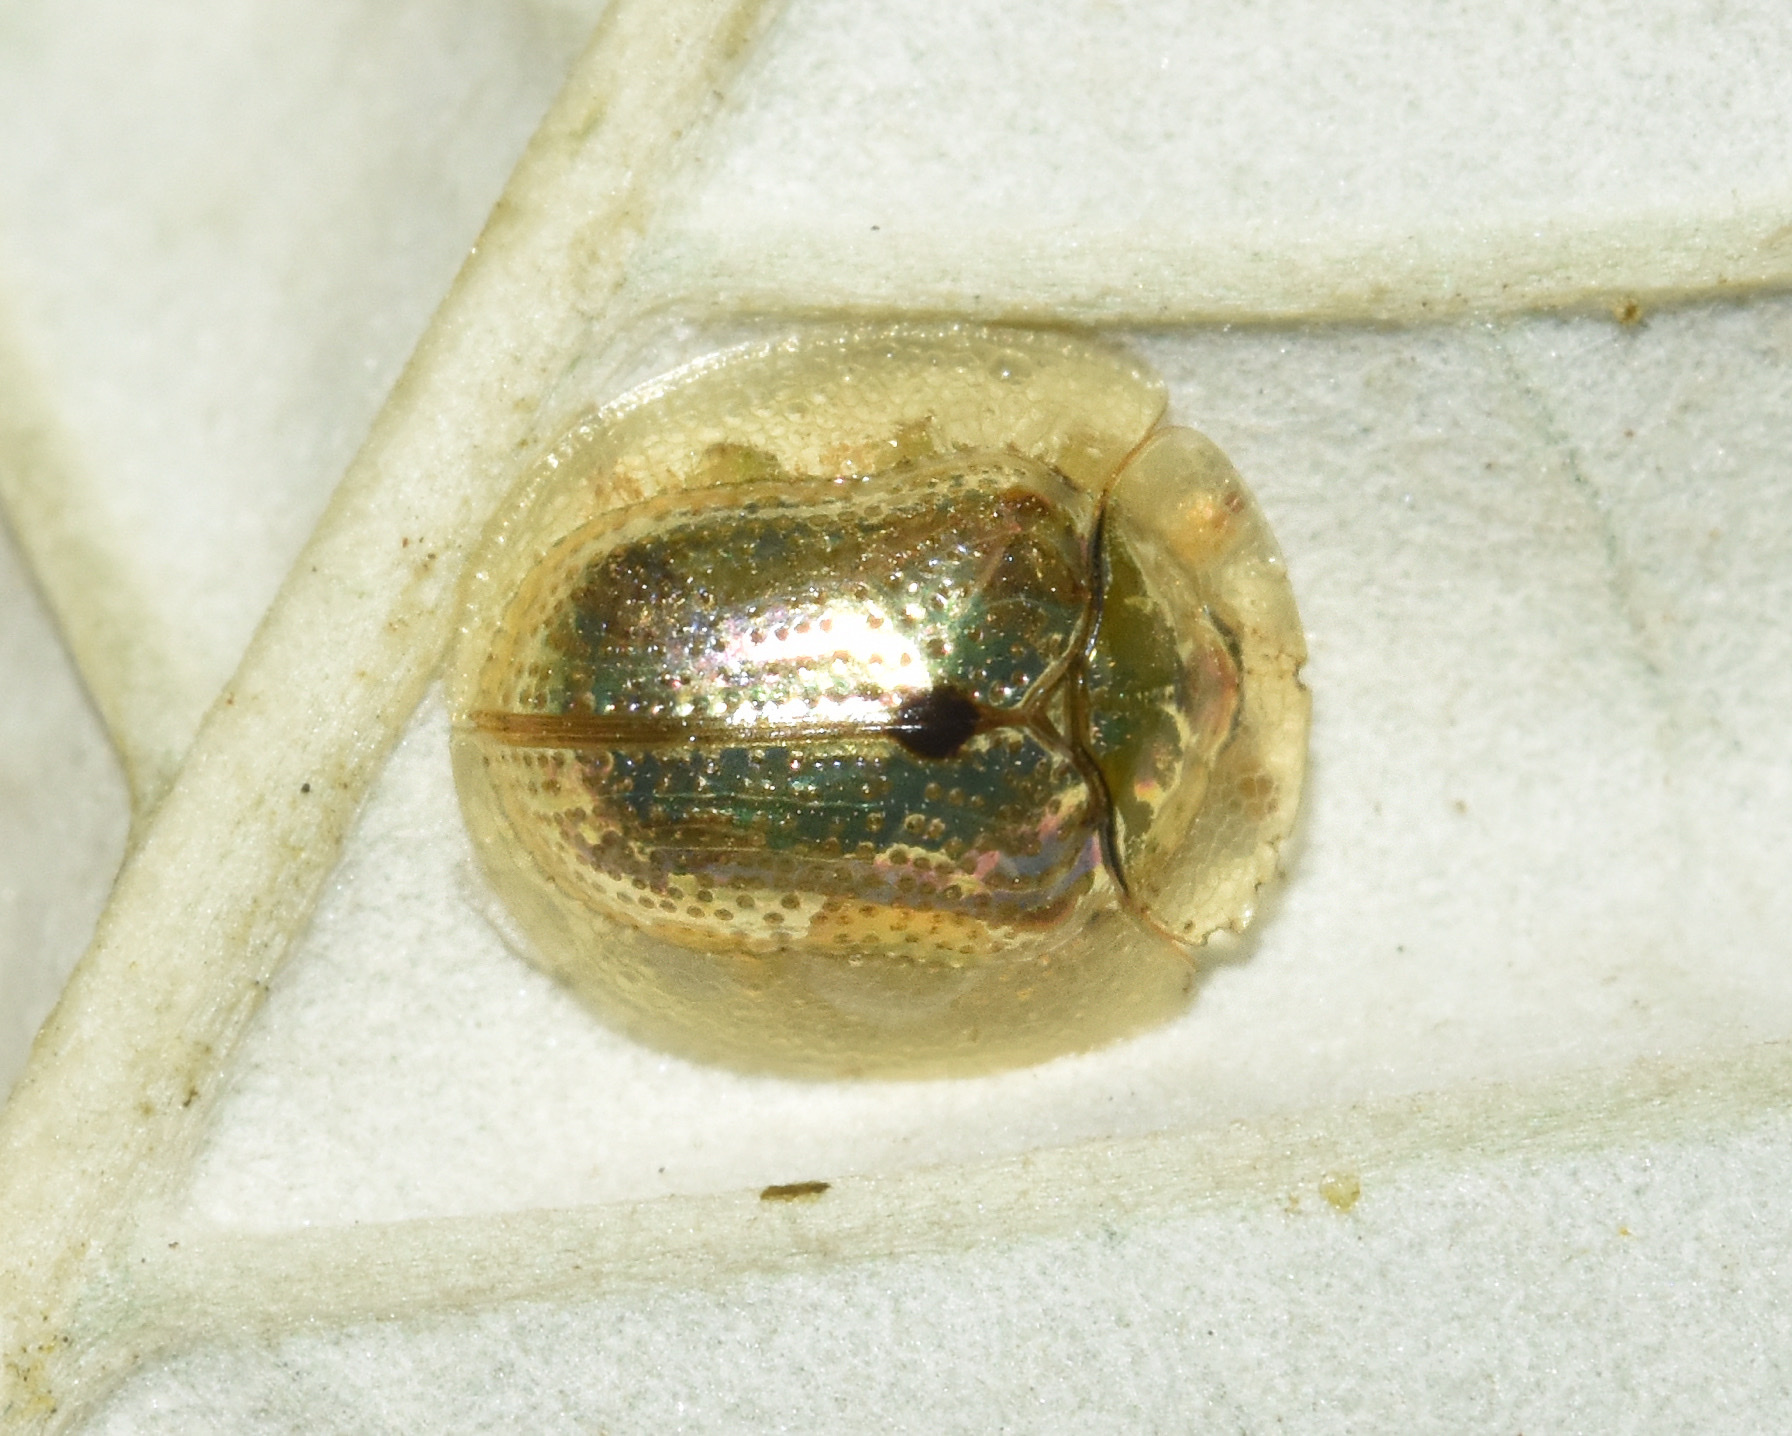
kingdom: Animalia
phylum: Arthropoda
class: Insecta
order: Coleoptera
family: Chrysomelidae
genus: Cassida
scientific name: Cassida unimaculata
